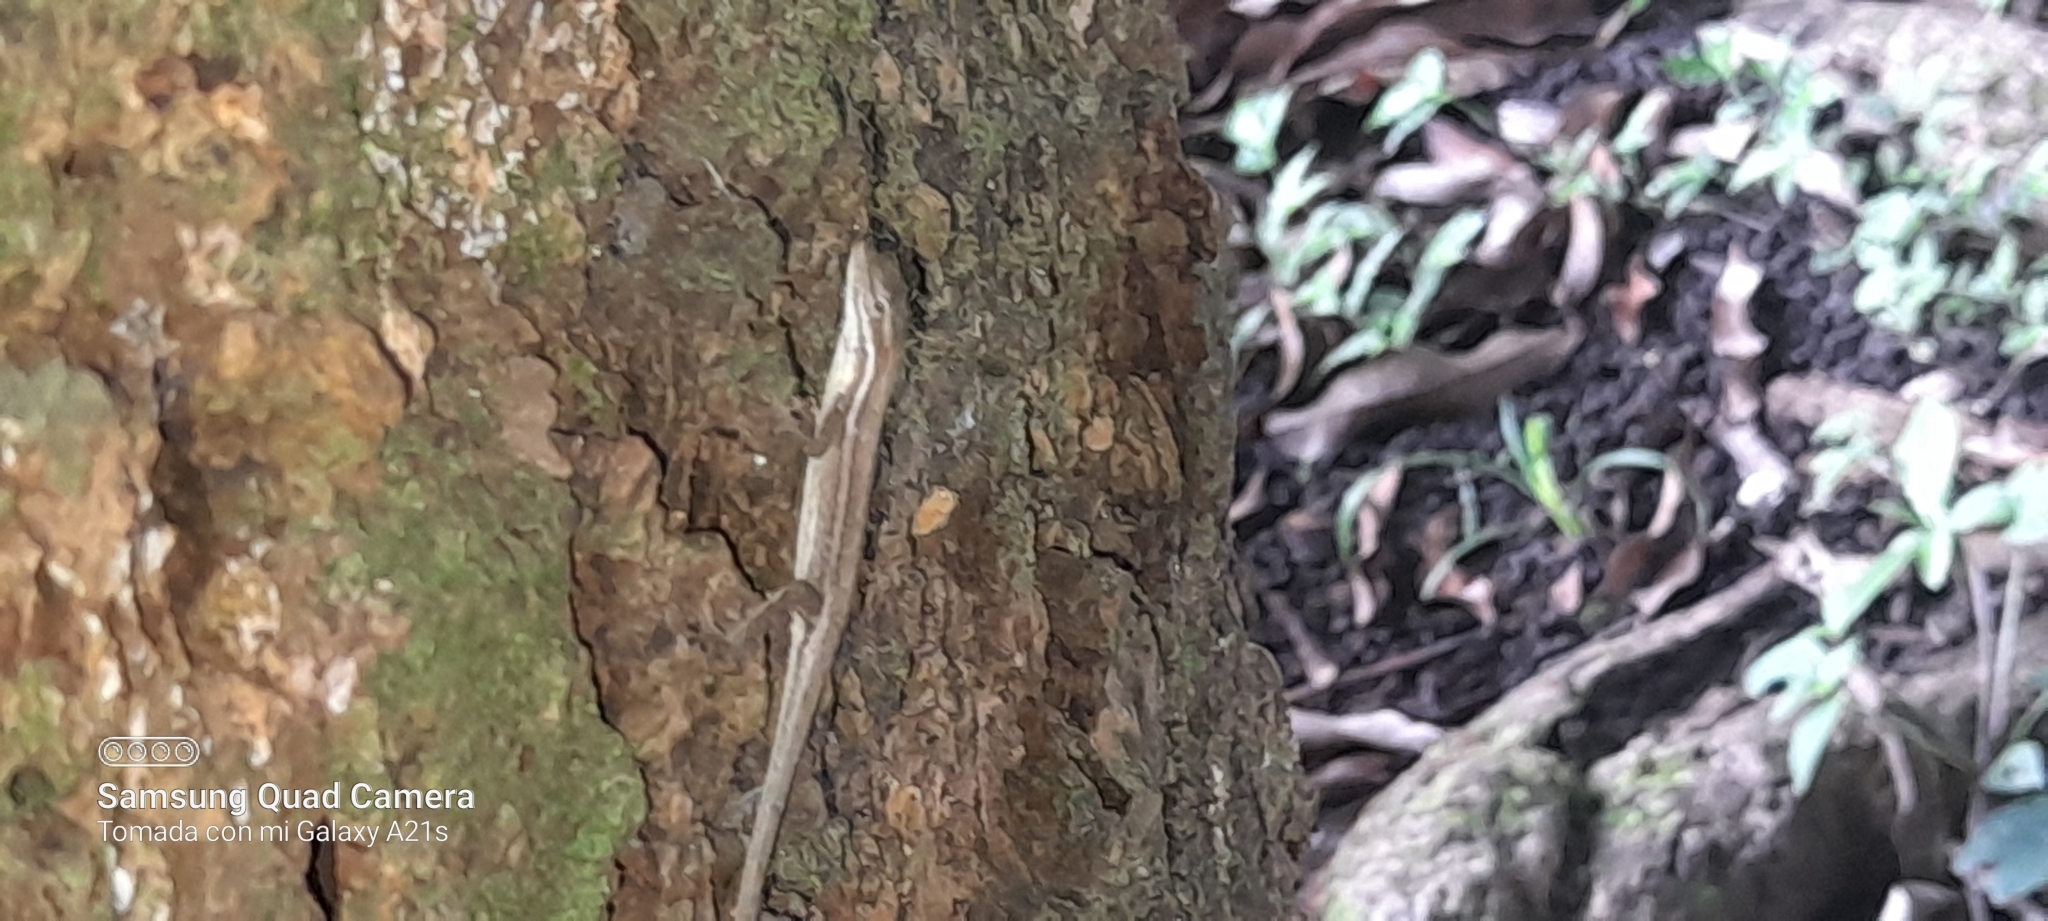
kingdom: Animalia
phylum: Chordata
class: Squamata
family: Dactyloidae
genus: Anolis
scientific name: Anolis auratus
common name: Grass anole
